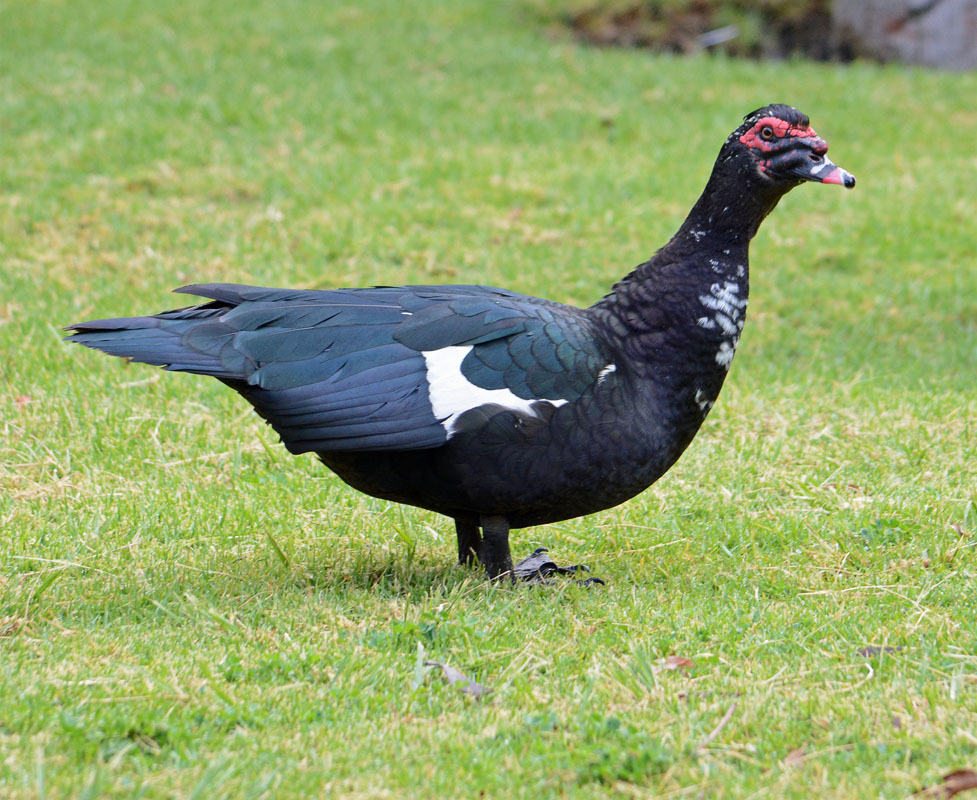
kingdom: Animalia
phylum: Chordata
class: Aves
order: Anseriformes
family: Anatidae
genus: Cairina
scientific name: Cairina moschata
